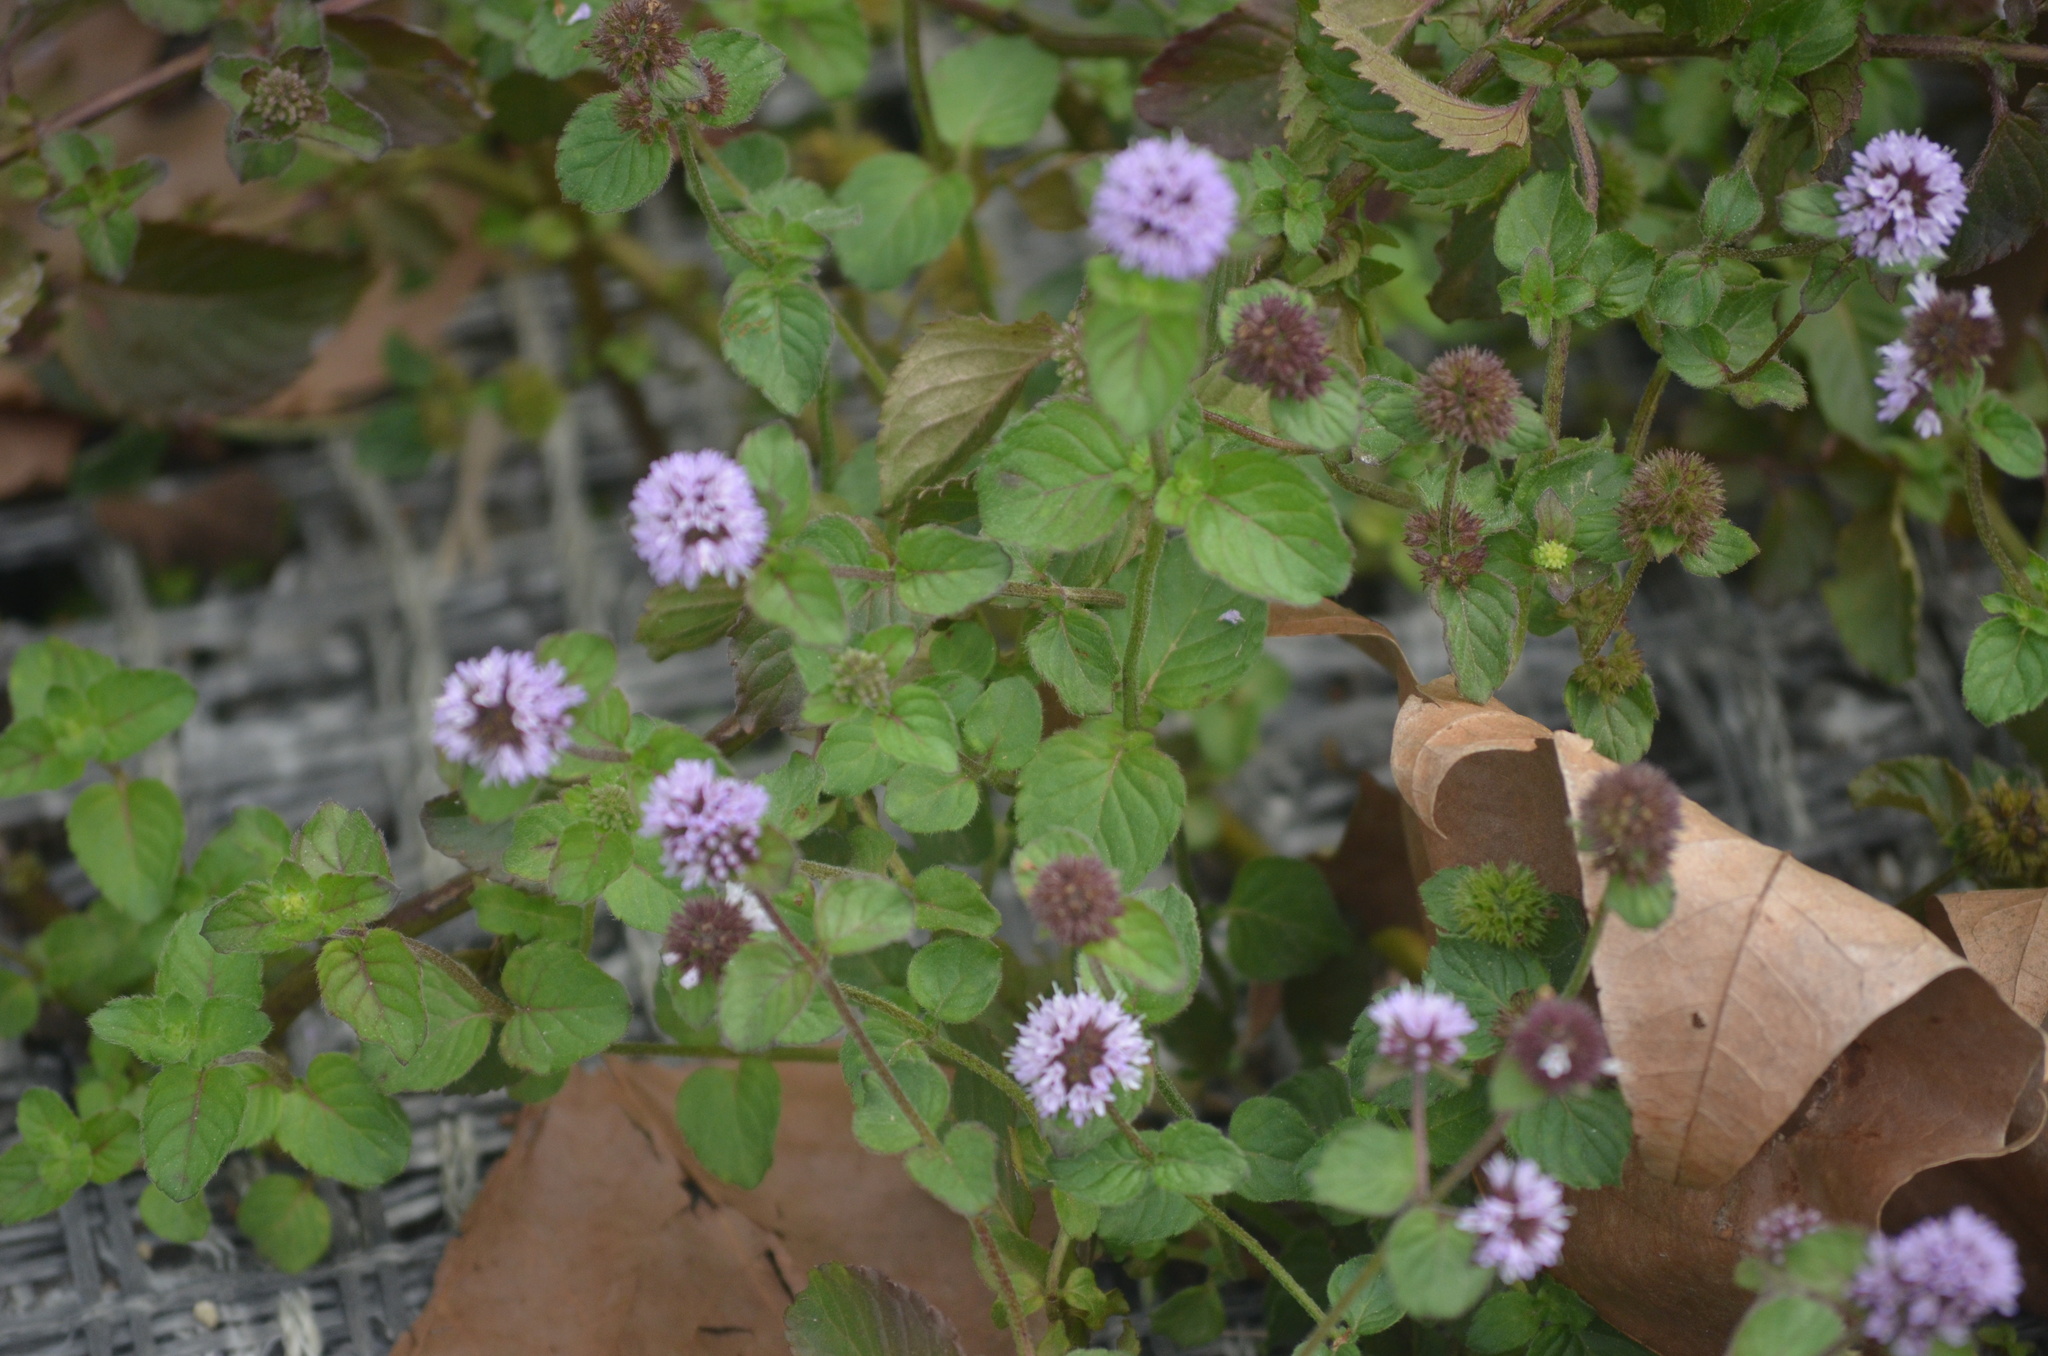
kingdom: Plantae
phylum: Tracheophyta
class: Magnoliopsida
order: Lamiales
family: Lamiaceae
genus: Mentha
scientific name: Mentha aquatica
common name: Water mint
